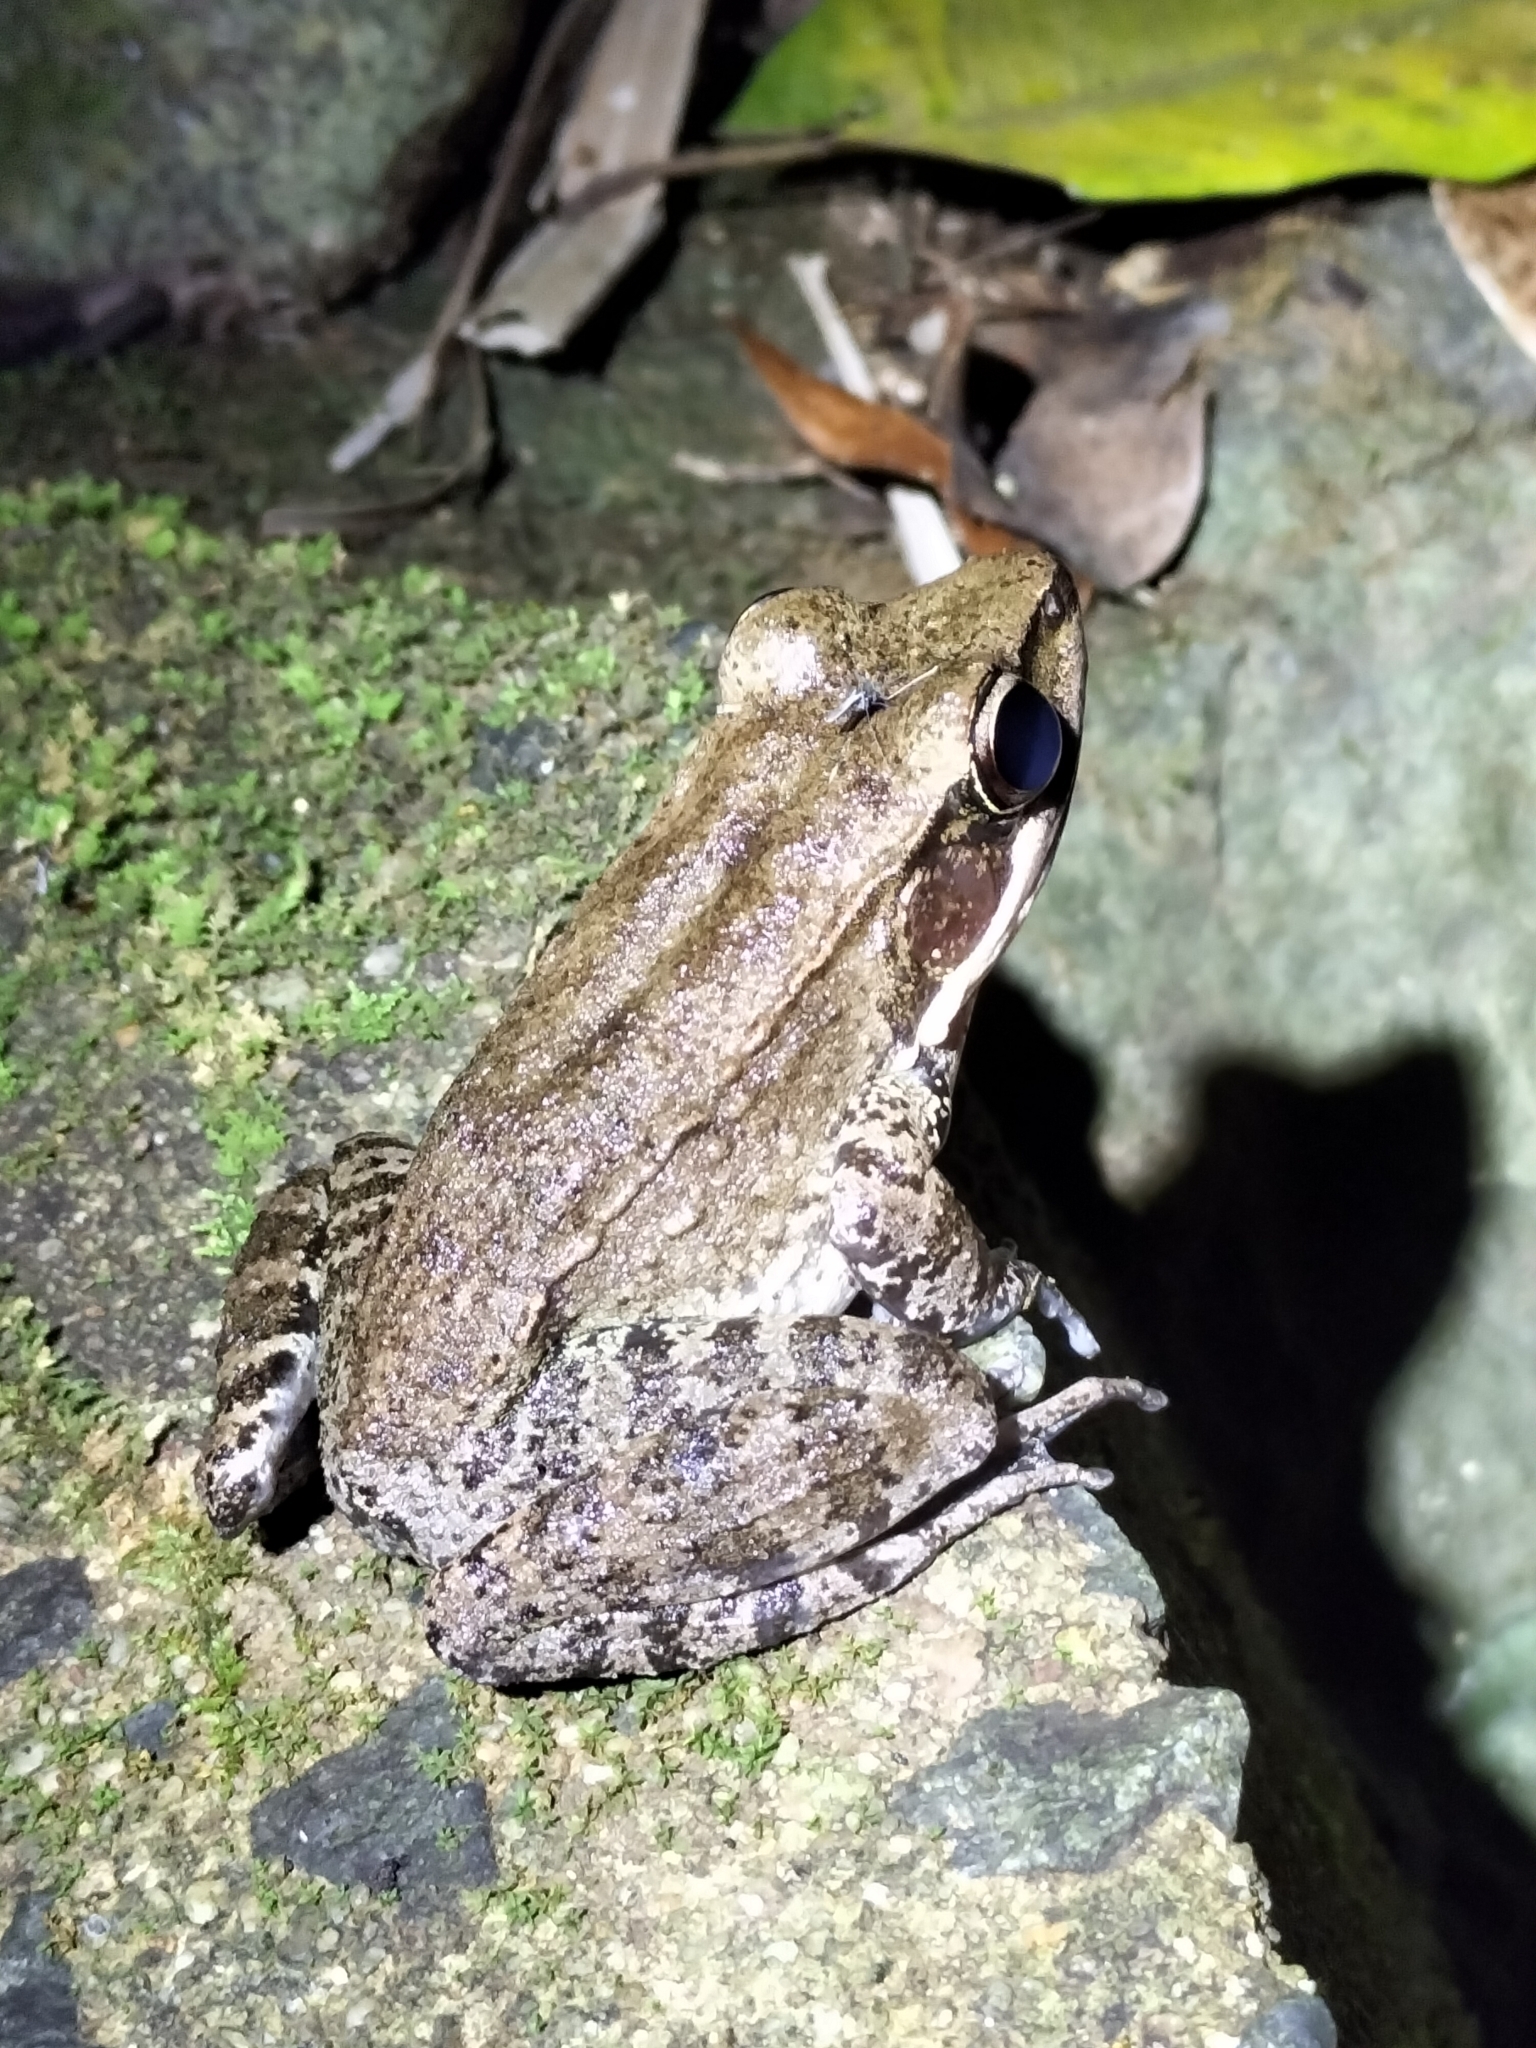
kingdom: Animalia
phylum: Chordata
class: Amphibia
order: Anura
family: Ranidae
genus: Papurana
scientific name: Papurana daemeli
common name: Arhem rana
